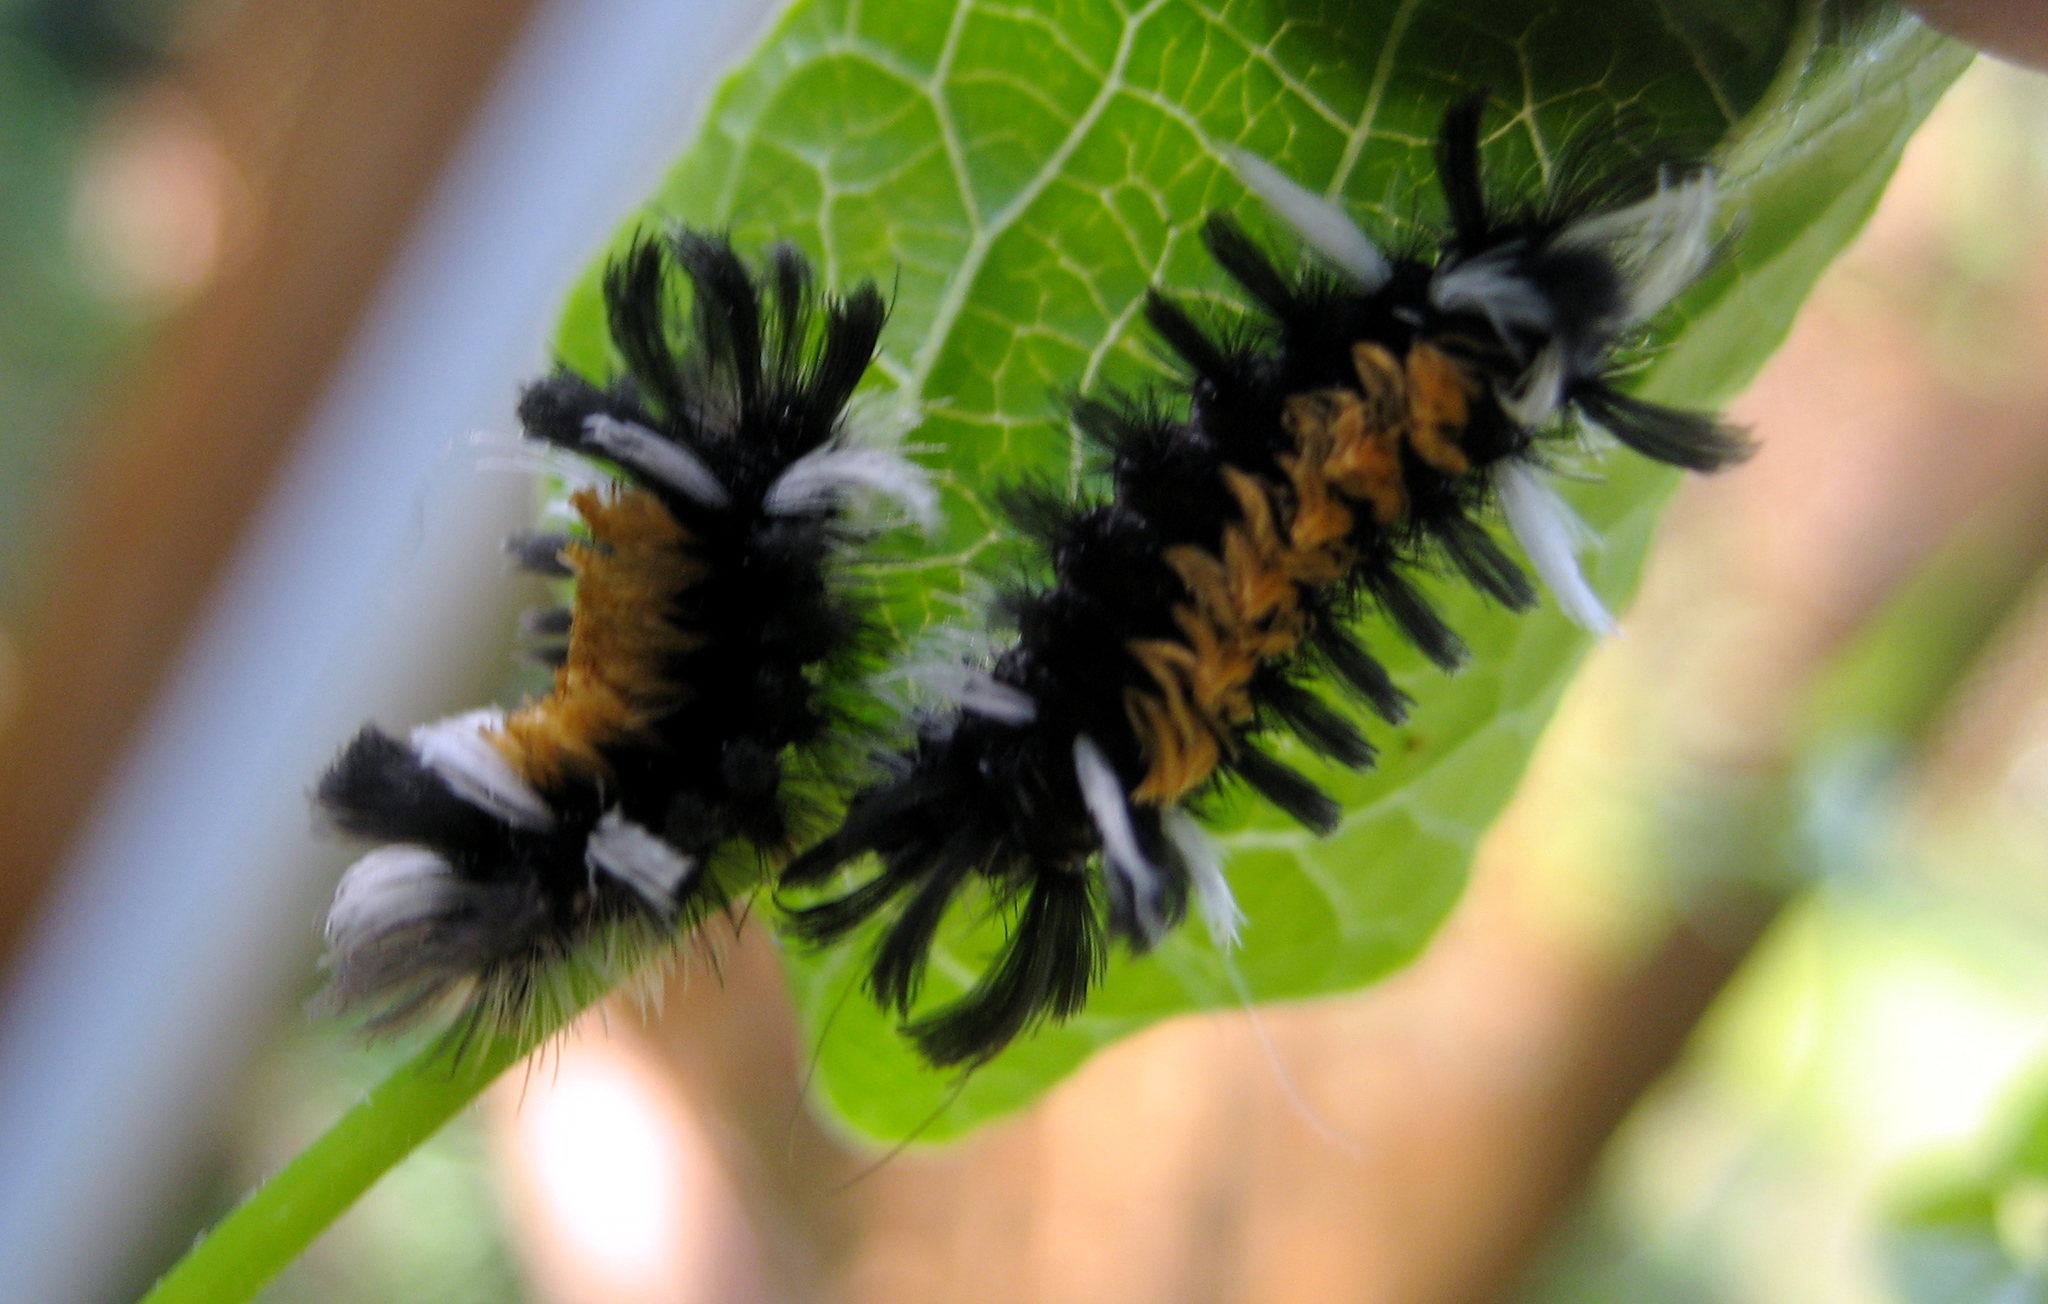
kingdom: Animalia
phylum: Arthropoda
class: Insecta
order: Lepidoptera
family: Erebidae
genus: Euchaetes
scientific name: Euchaetes egle
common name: Milkweed tussock moth
